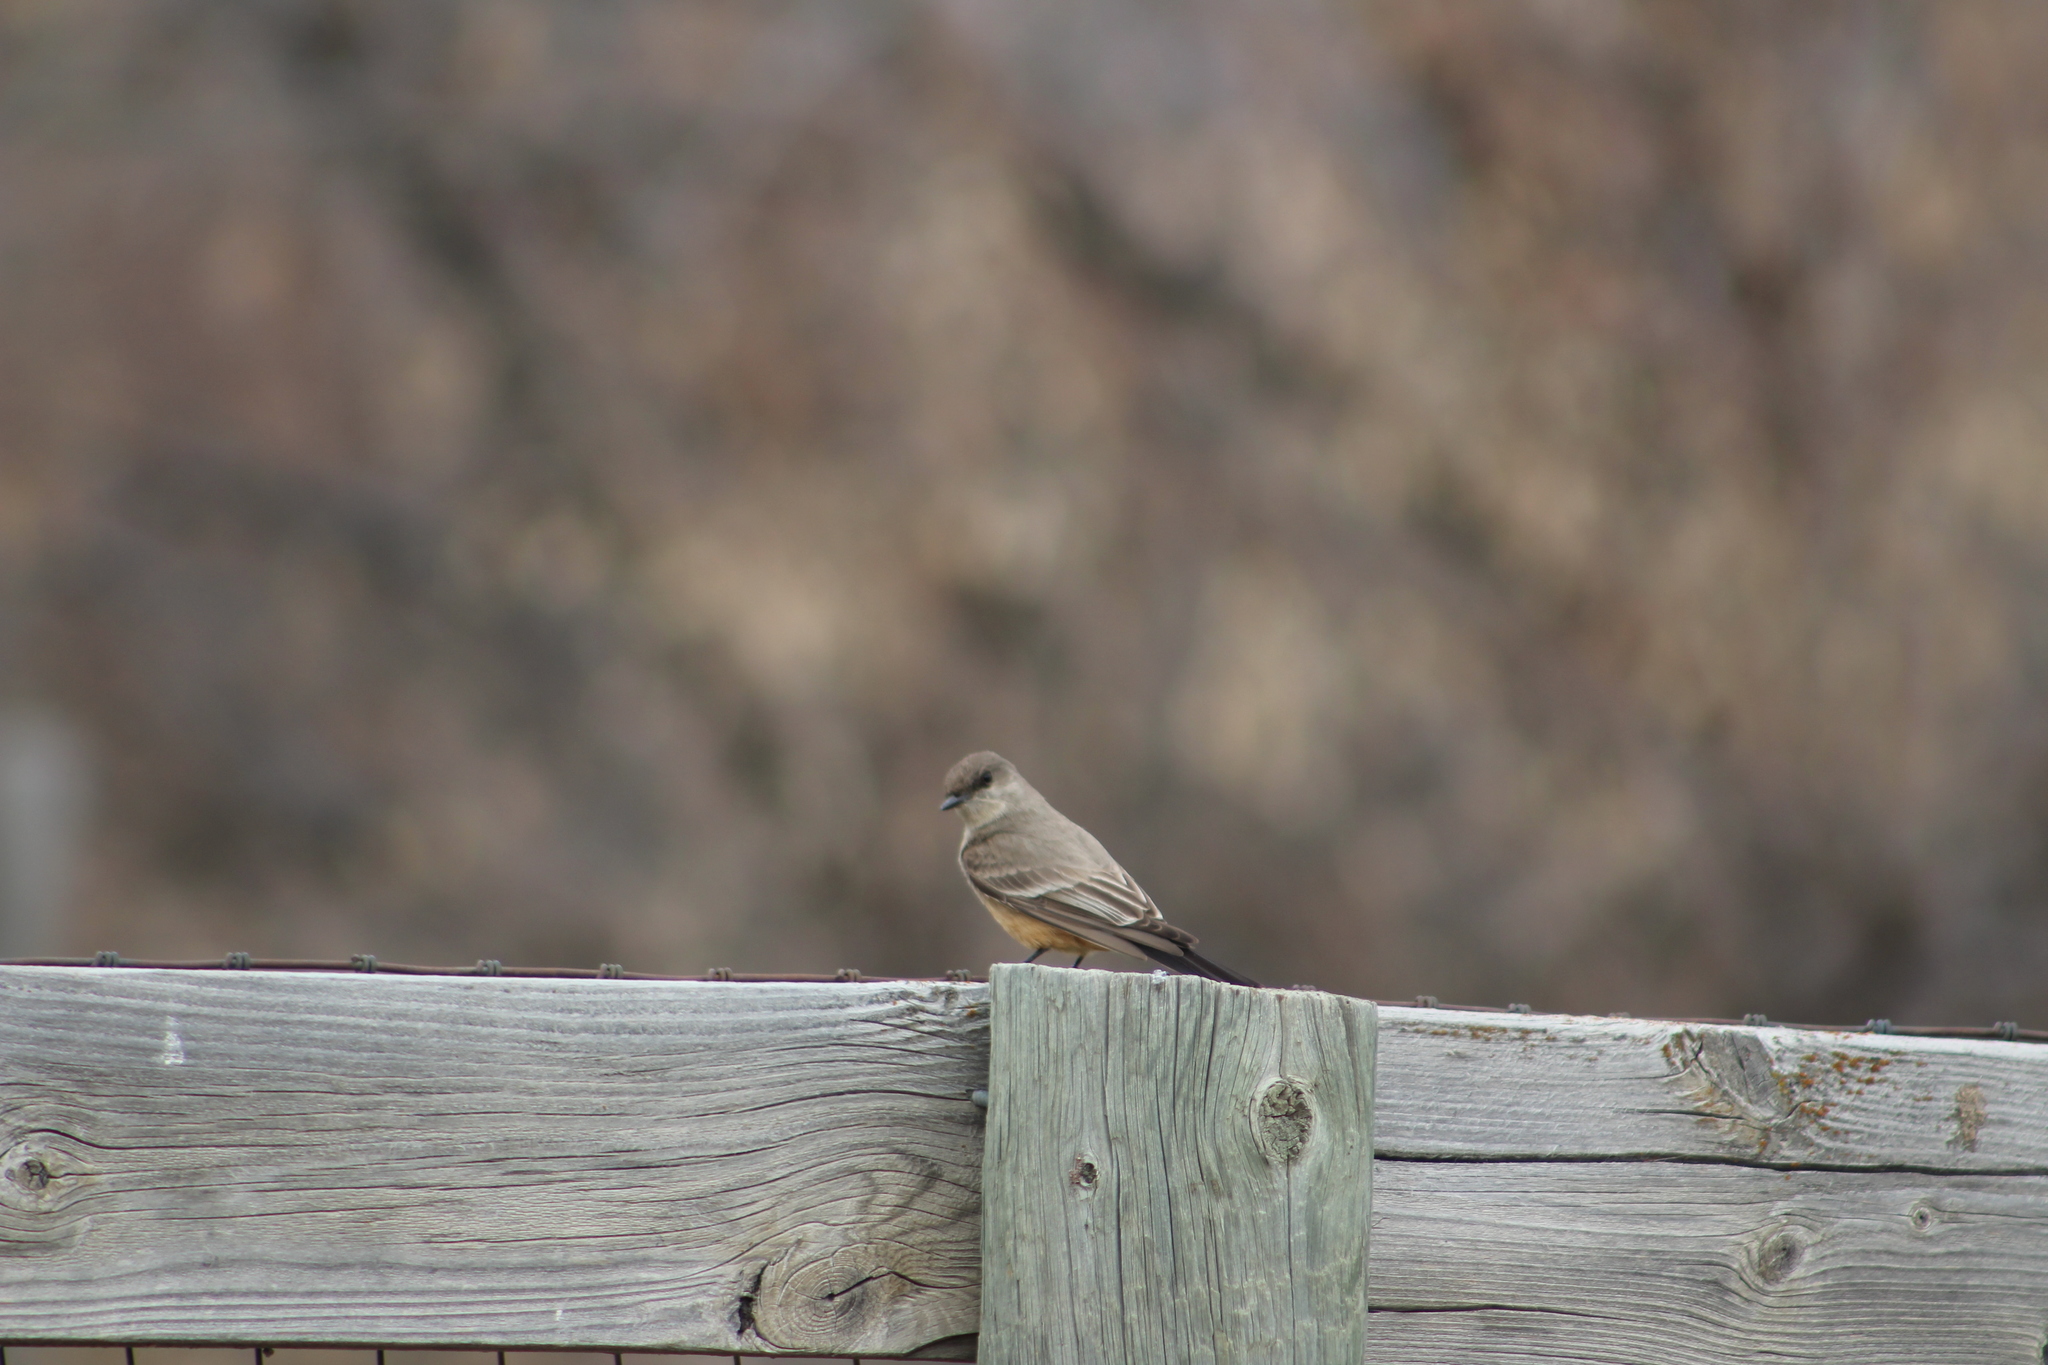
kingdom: Animalia
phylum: Chordata
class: Aves
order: Passeriformes
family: Tyrannidae
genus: Sayornis
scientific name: Sayornis saya
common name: Say's phoebe
